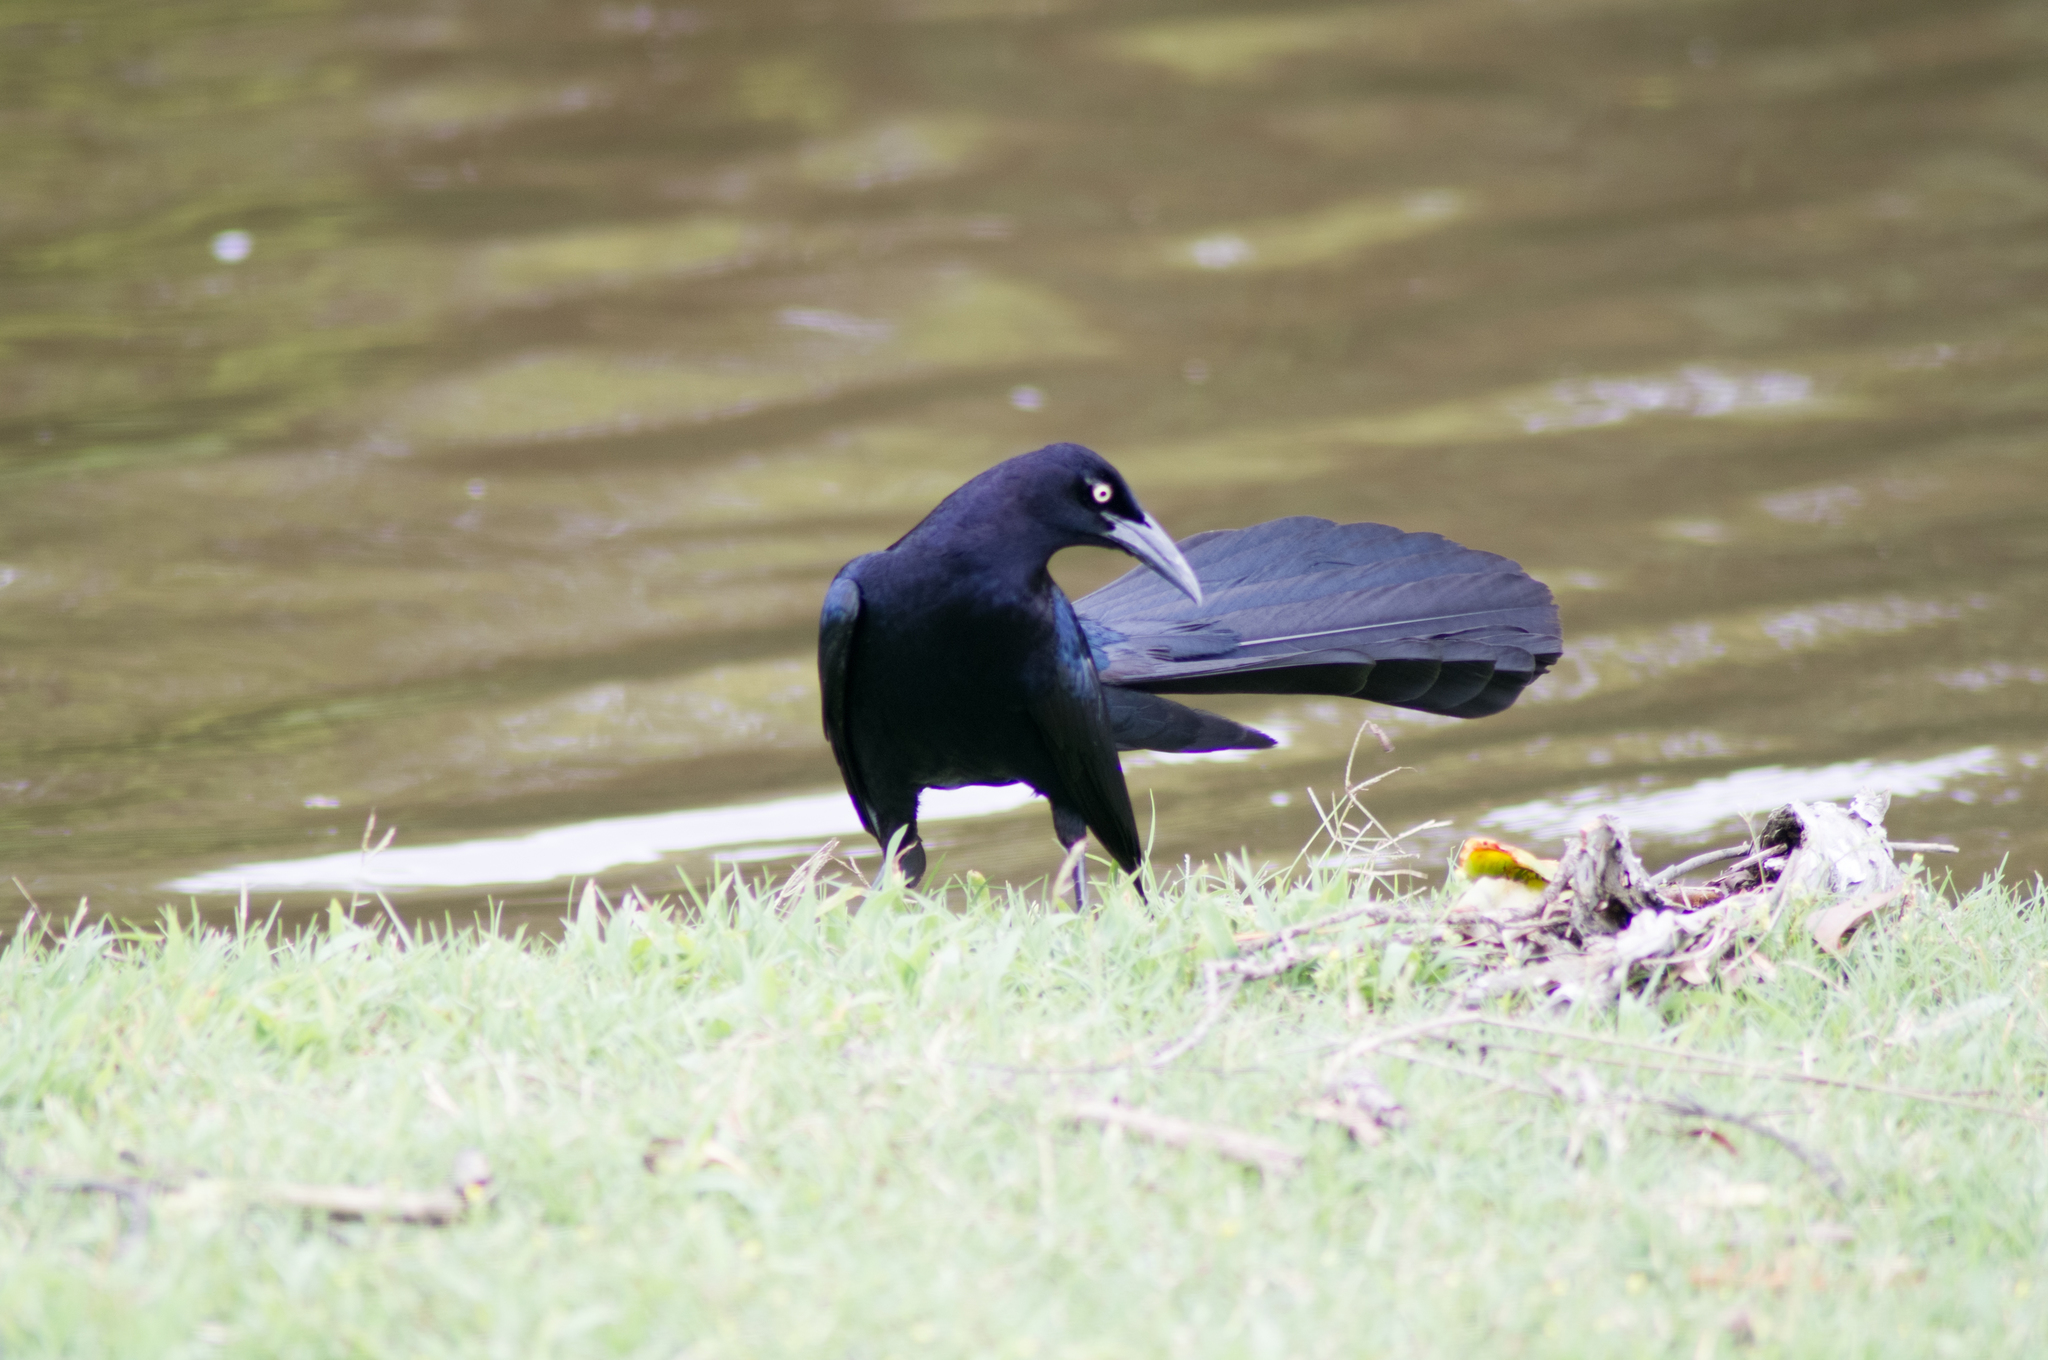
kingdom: Animalia
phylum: Chordata
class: Aves
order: Passeriformes
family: Icteridae
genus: Quiscalus
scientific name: Quiscalus mexicanus
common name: Great-tailed grackle
